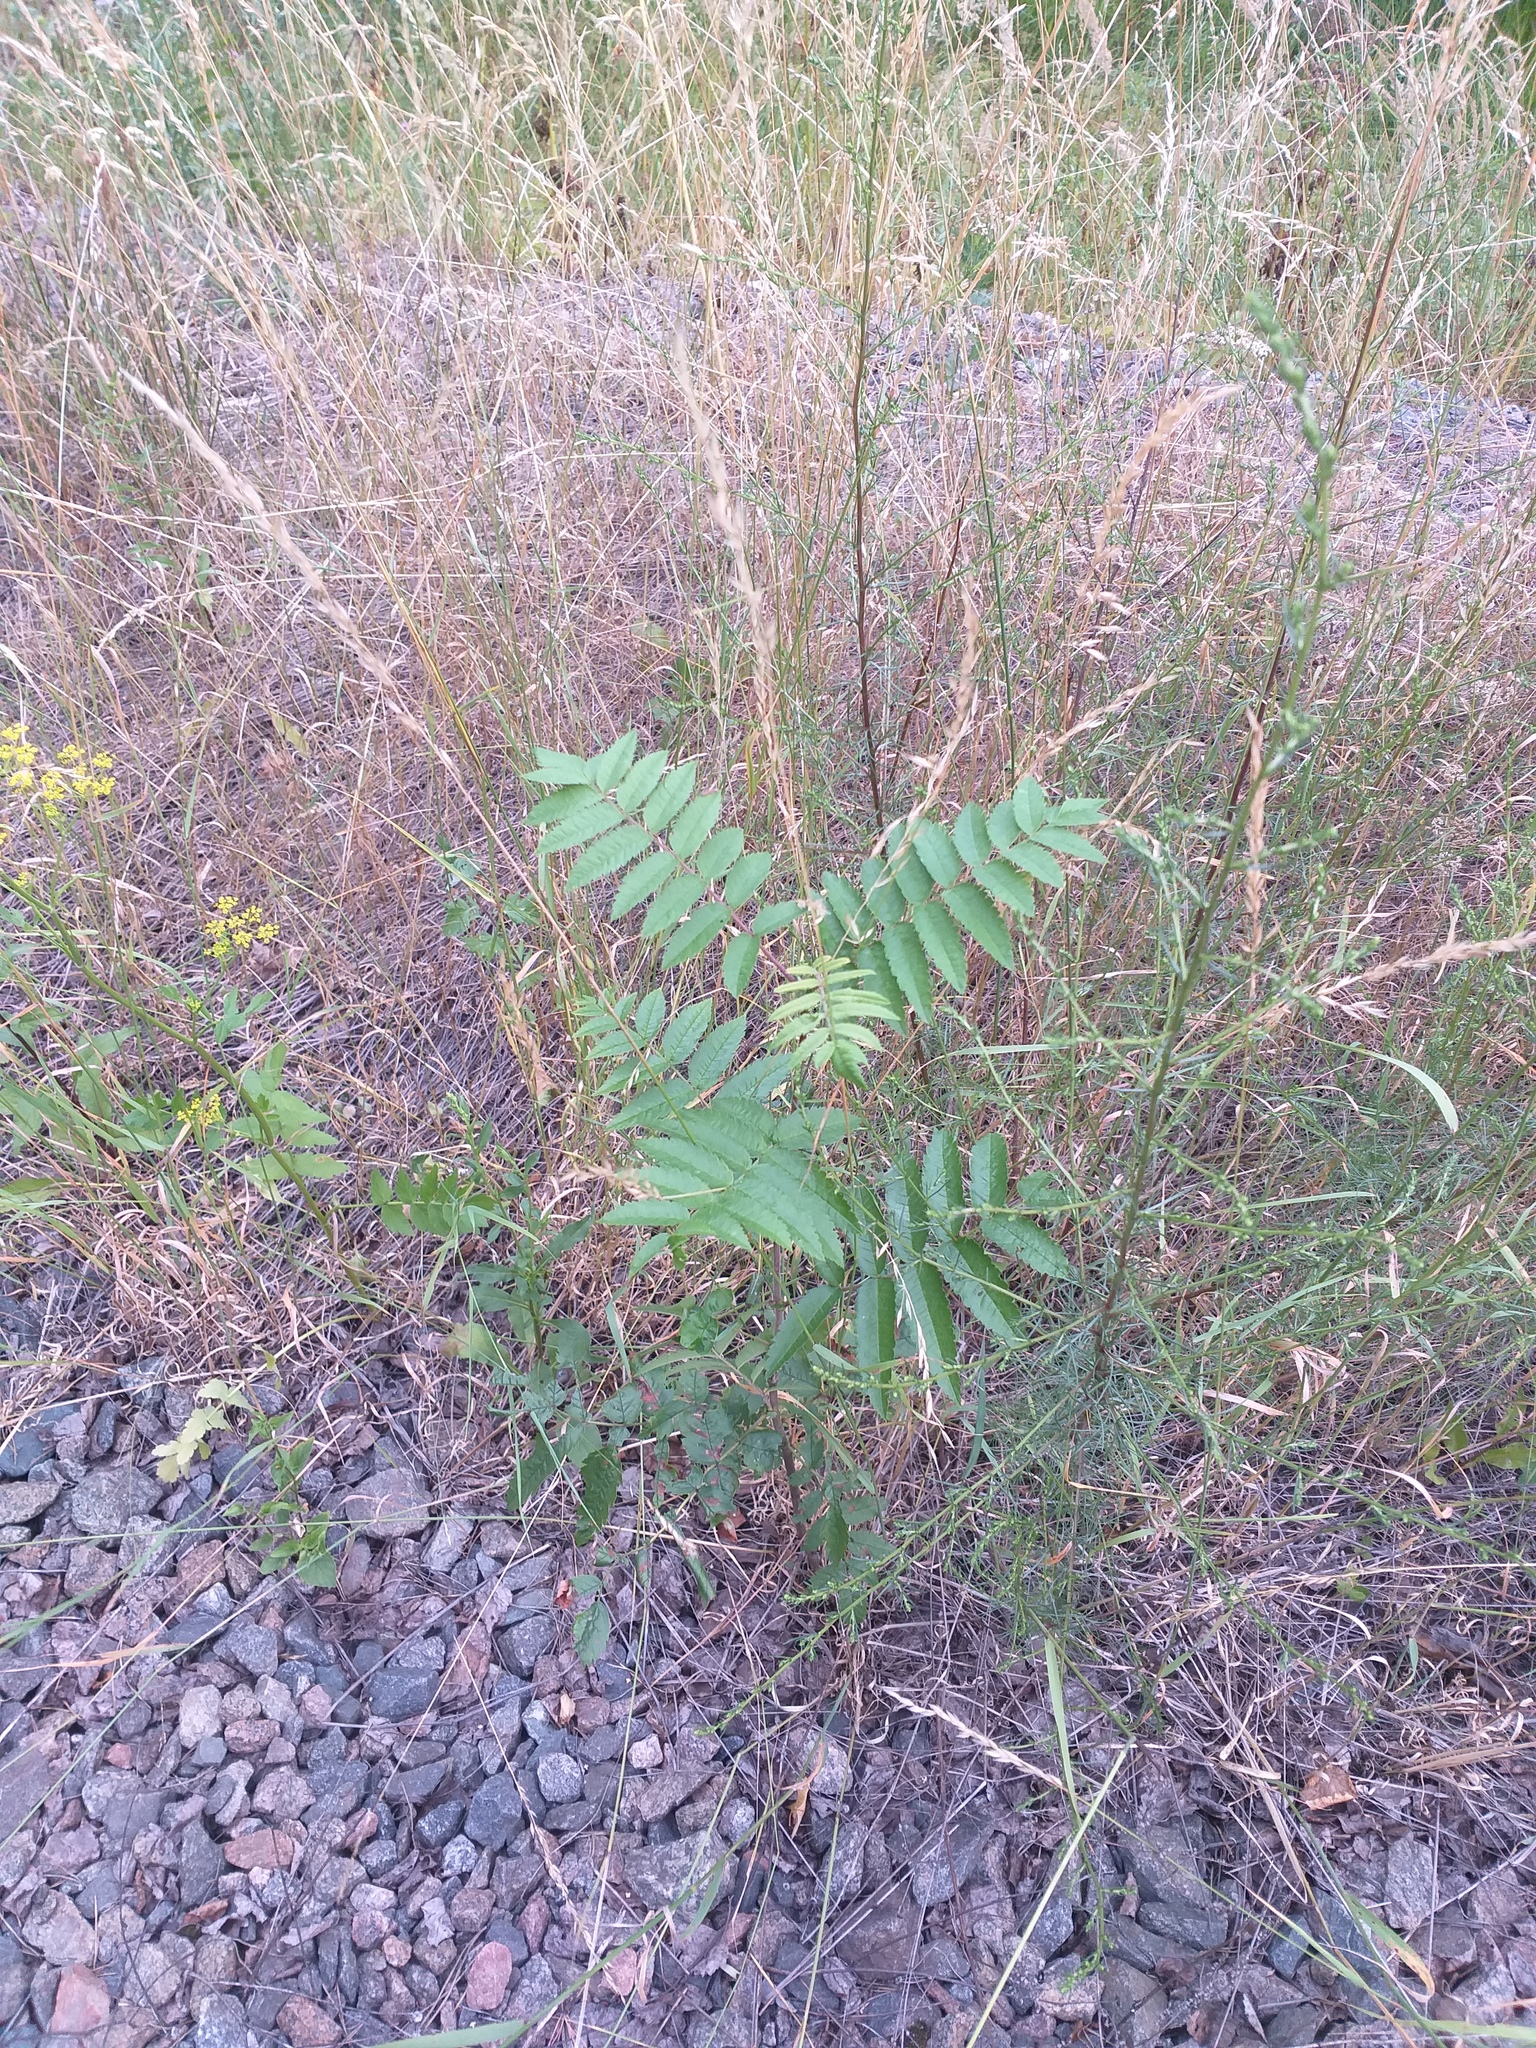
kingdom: Plantae
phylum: Tracheophyta
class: Magnoliopsida
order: Rosales
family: Rosaceae
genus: Sorbus
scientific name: Sorbus aucuparia
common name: Rowan
